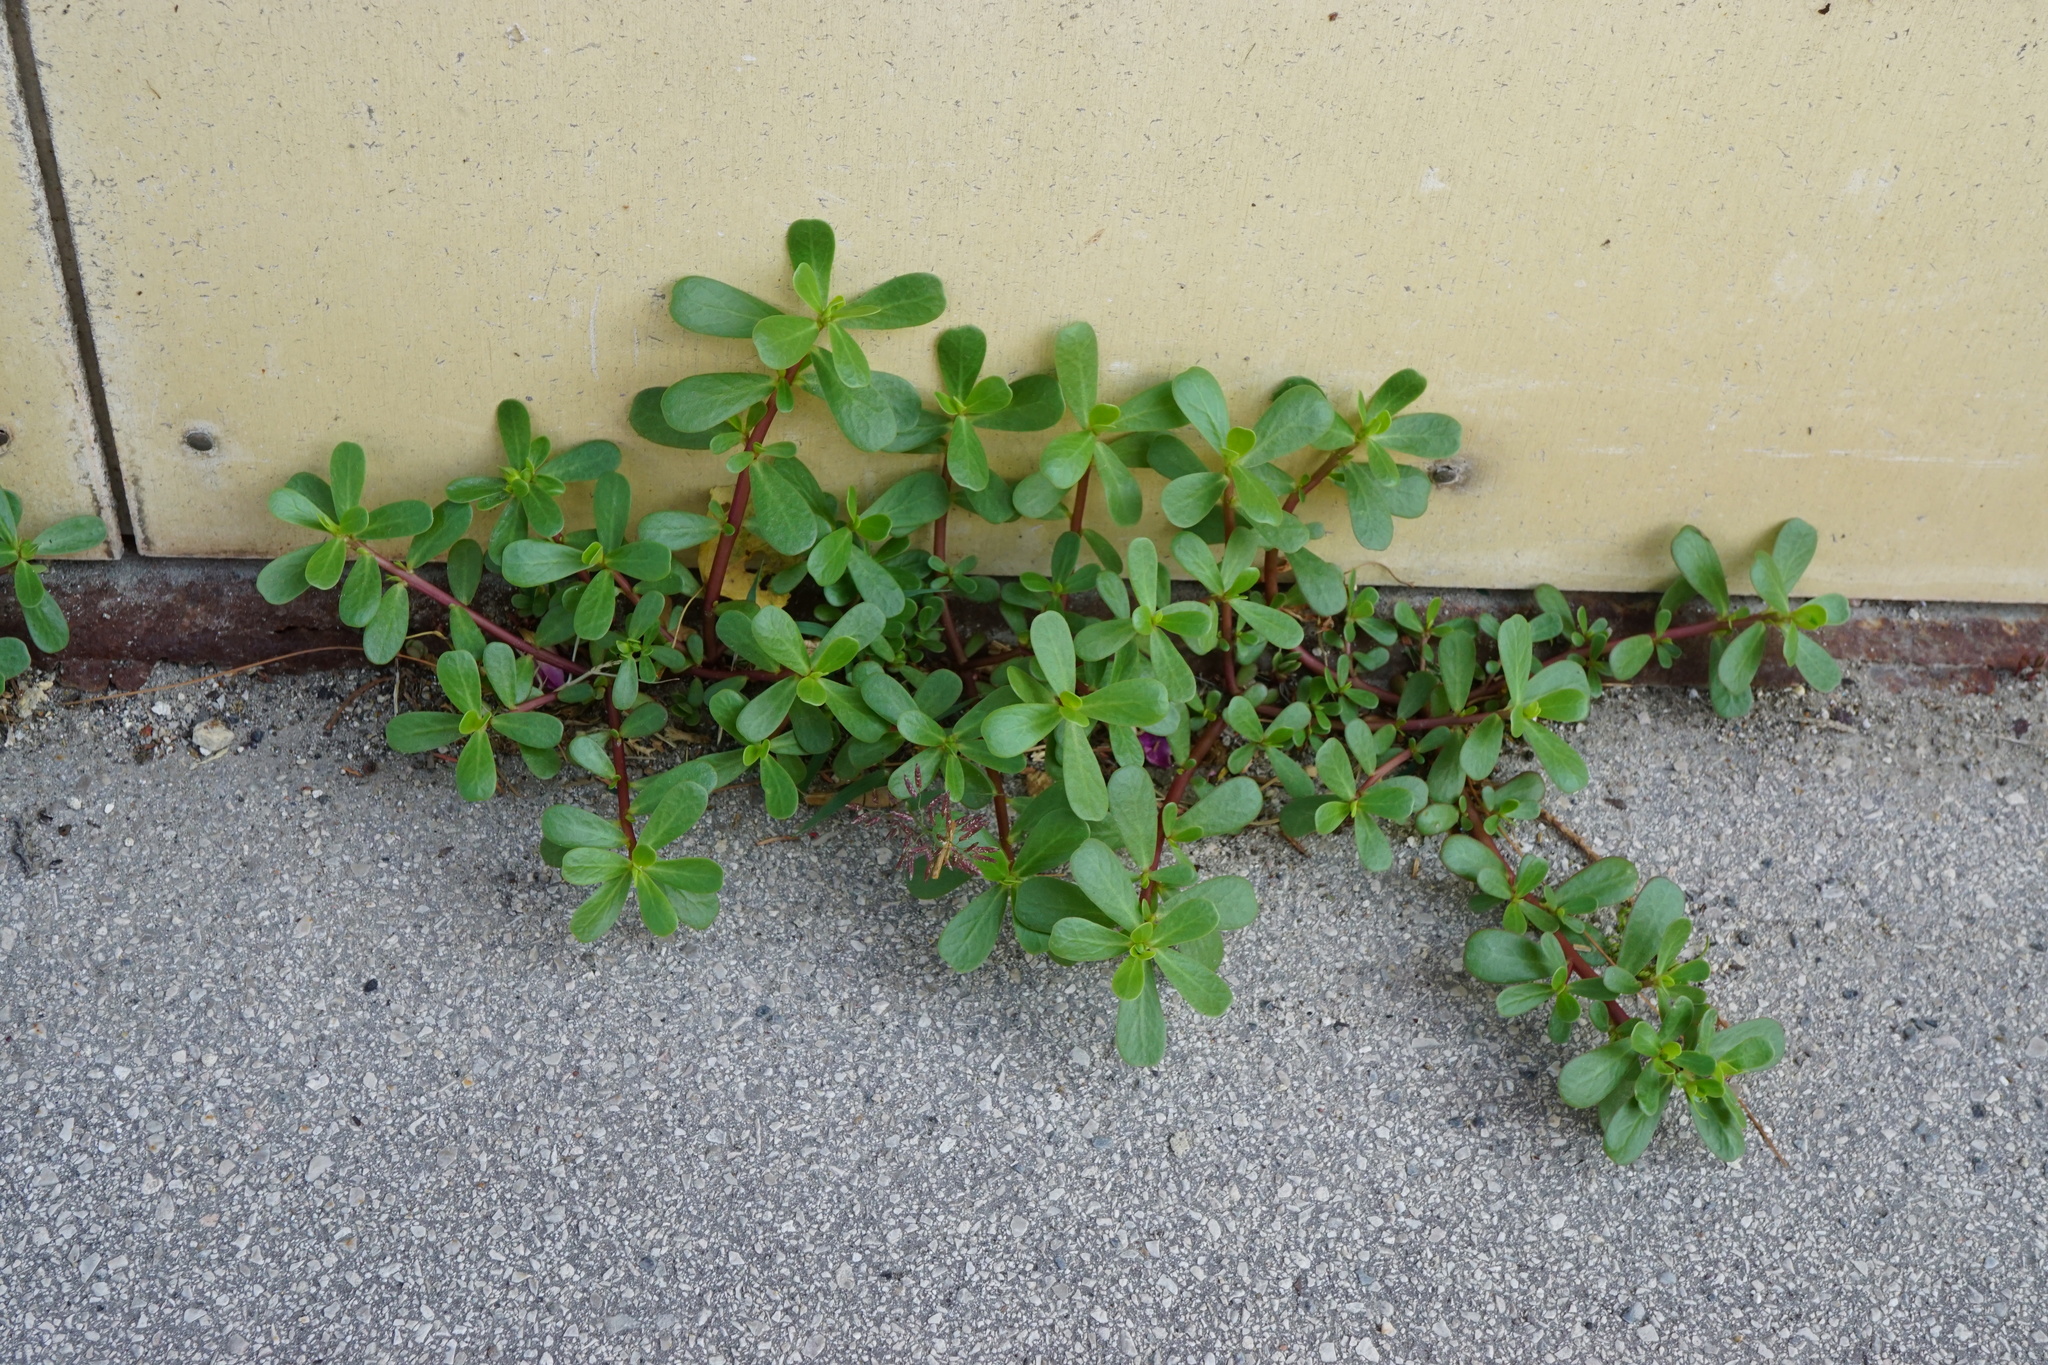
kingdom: Plantae
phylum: Tracheophyta
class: Magnoliopsida
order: Caryophyllales
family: Portulacaceae
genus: Portulaca
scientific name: Portulaca oleracea
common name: Common purslane
